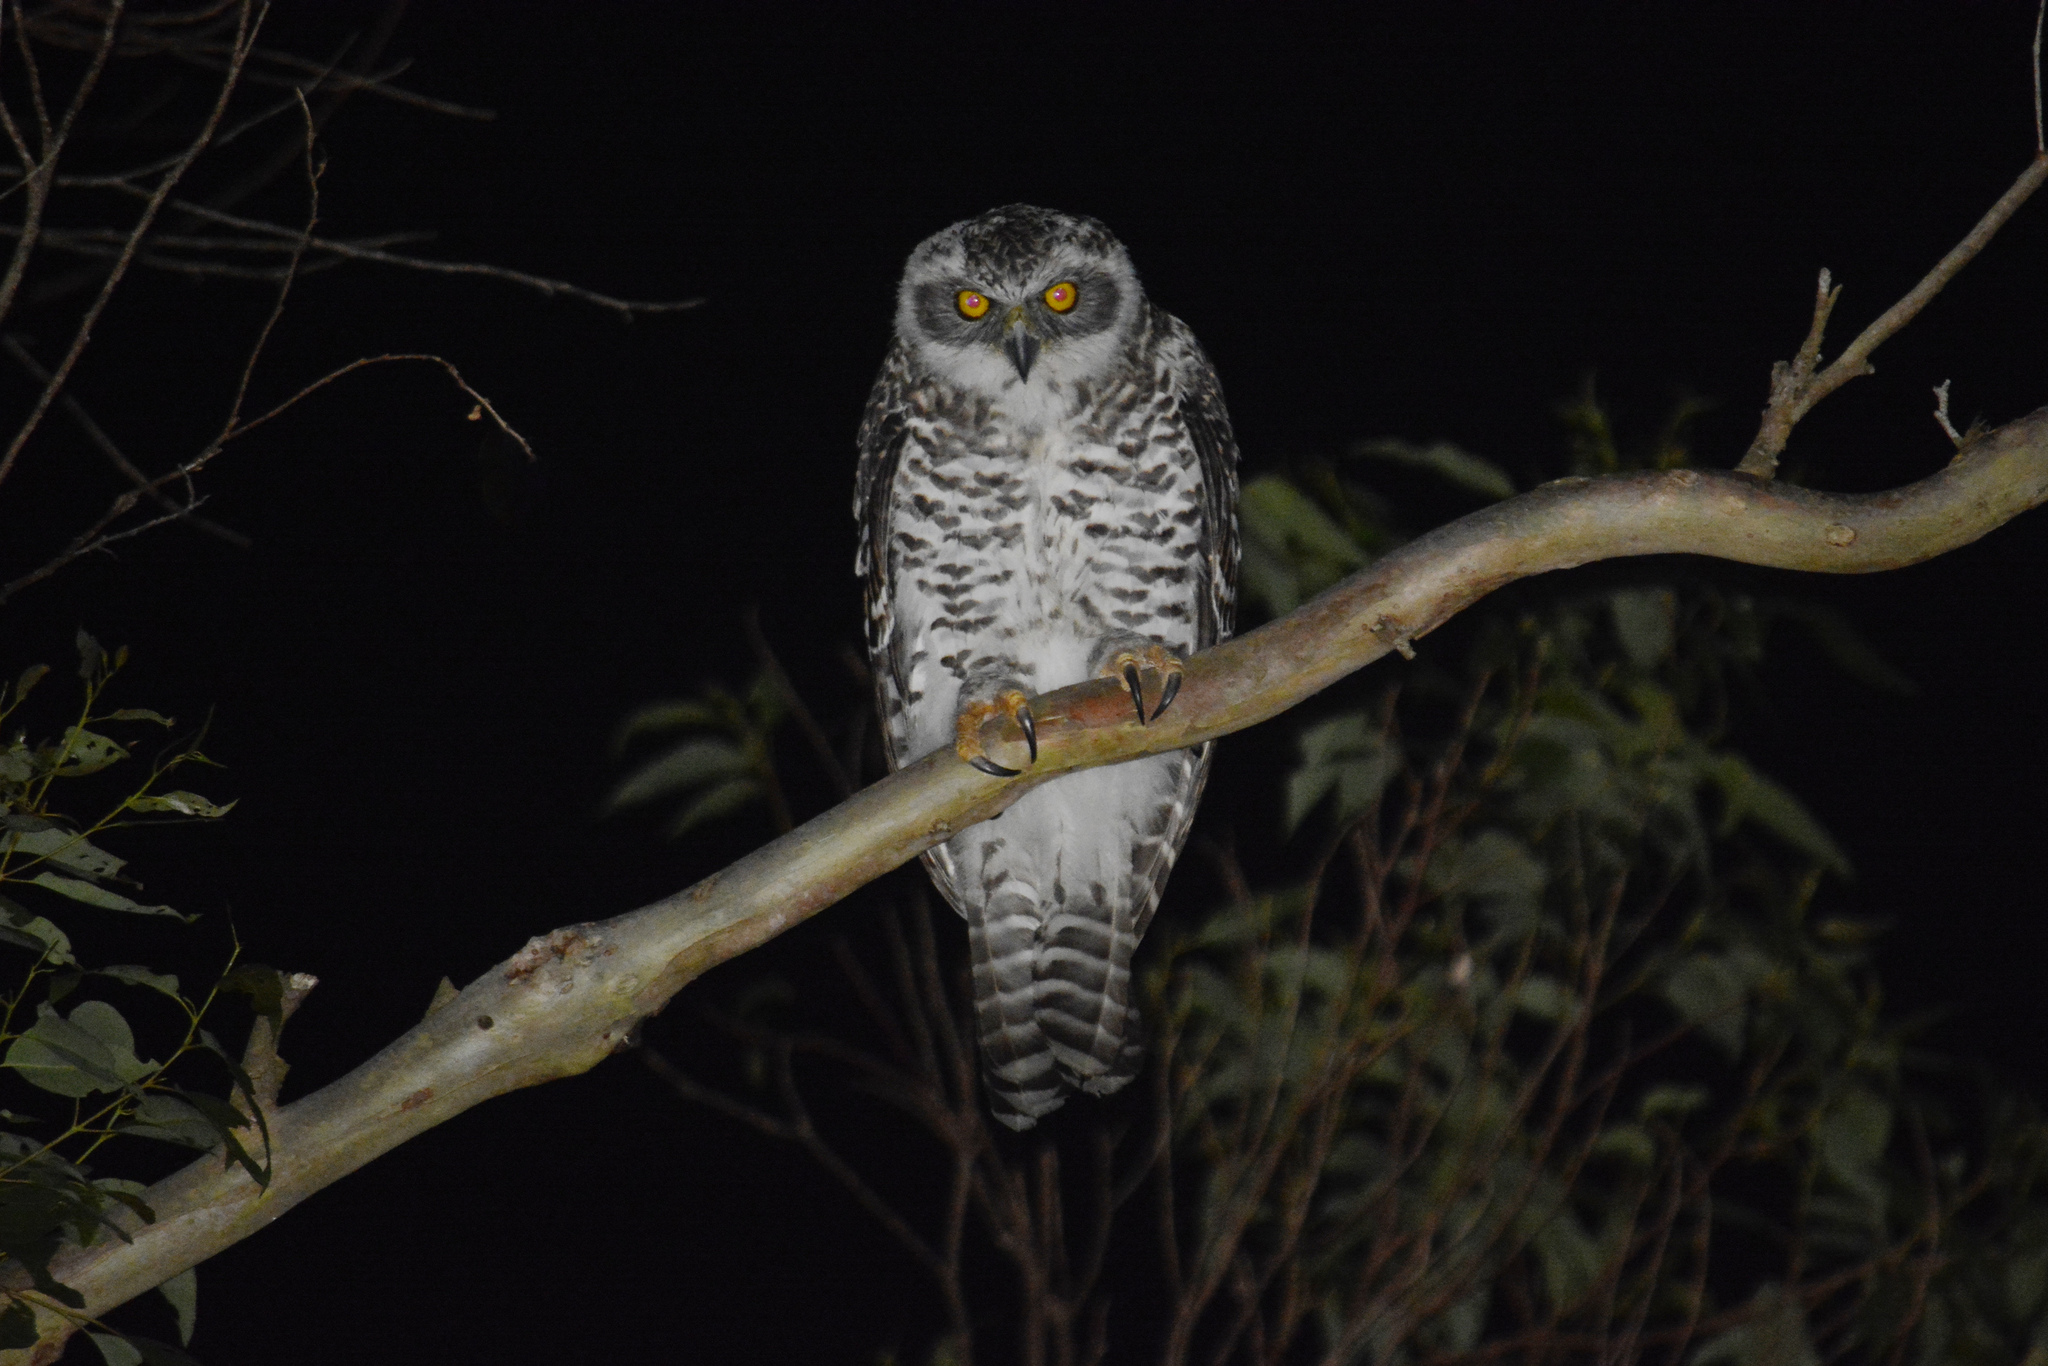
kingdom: Animalia
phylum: Chordata
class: Aves
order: Strigiformes
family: Strigidae
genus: Ninox
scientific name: Ninox strenua
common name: Powerful owl
